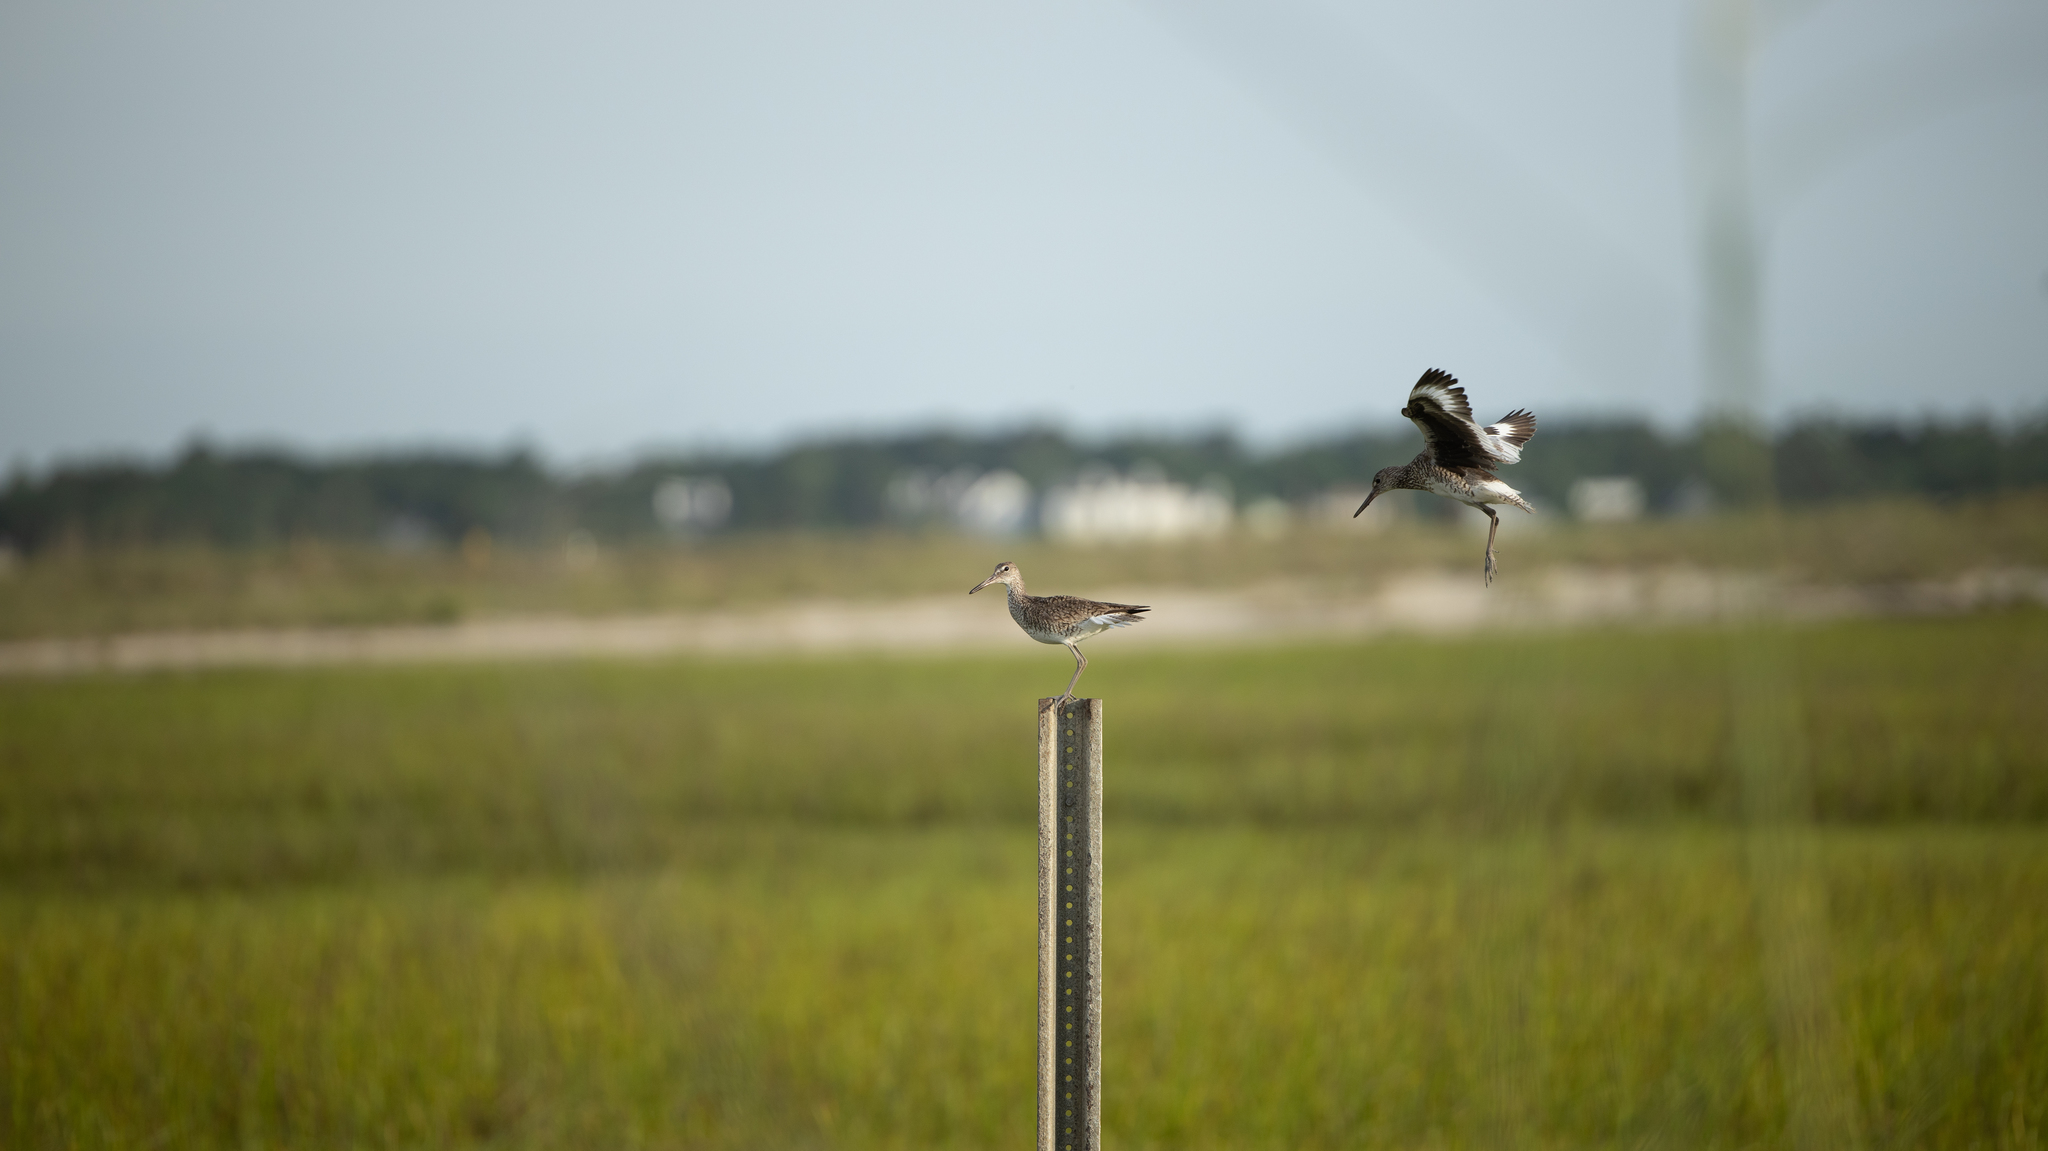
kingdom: Animalia
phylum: Chordata
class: Aves
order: Charadriiformes
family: Scolopacidae
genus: Tringa
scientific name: Tringa semipalmata
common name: Willet
